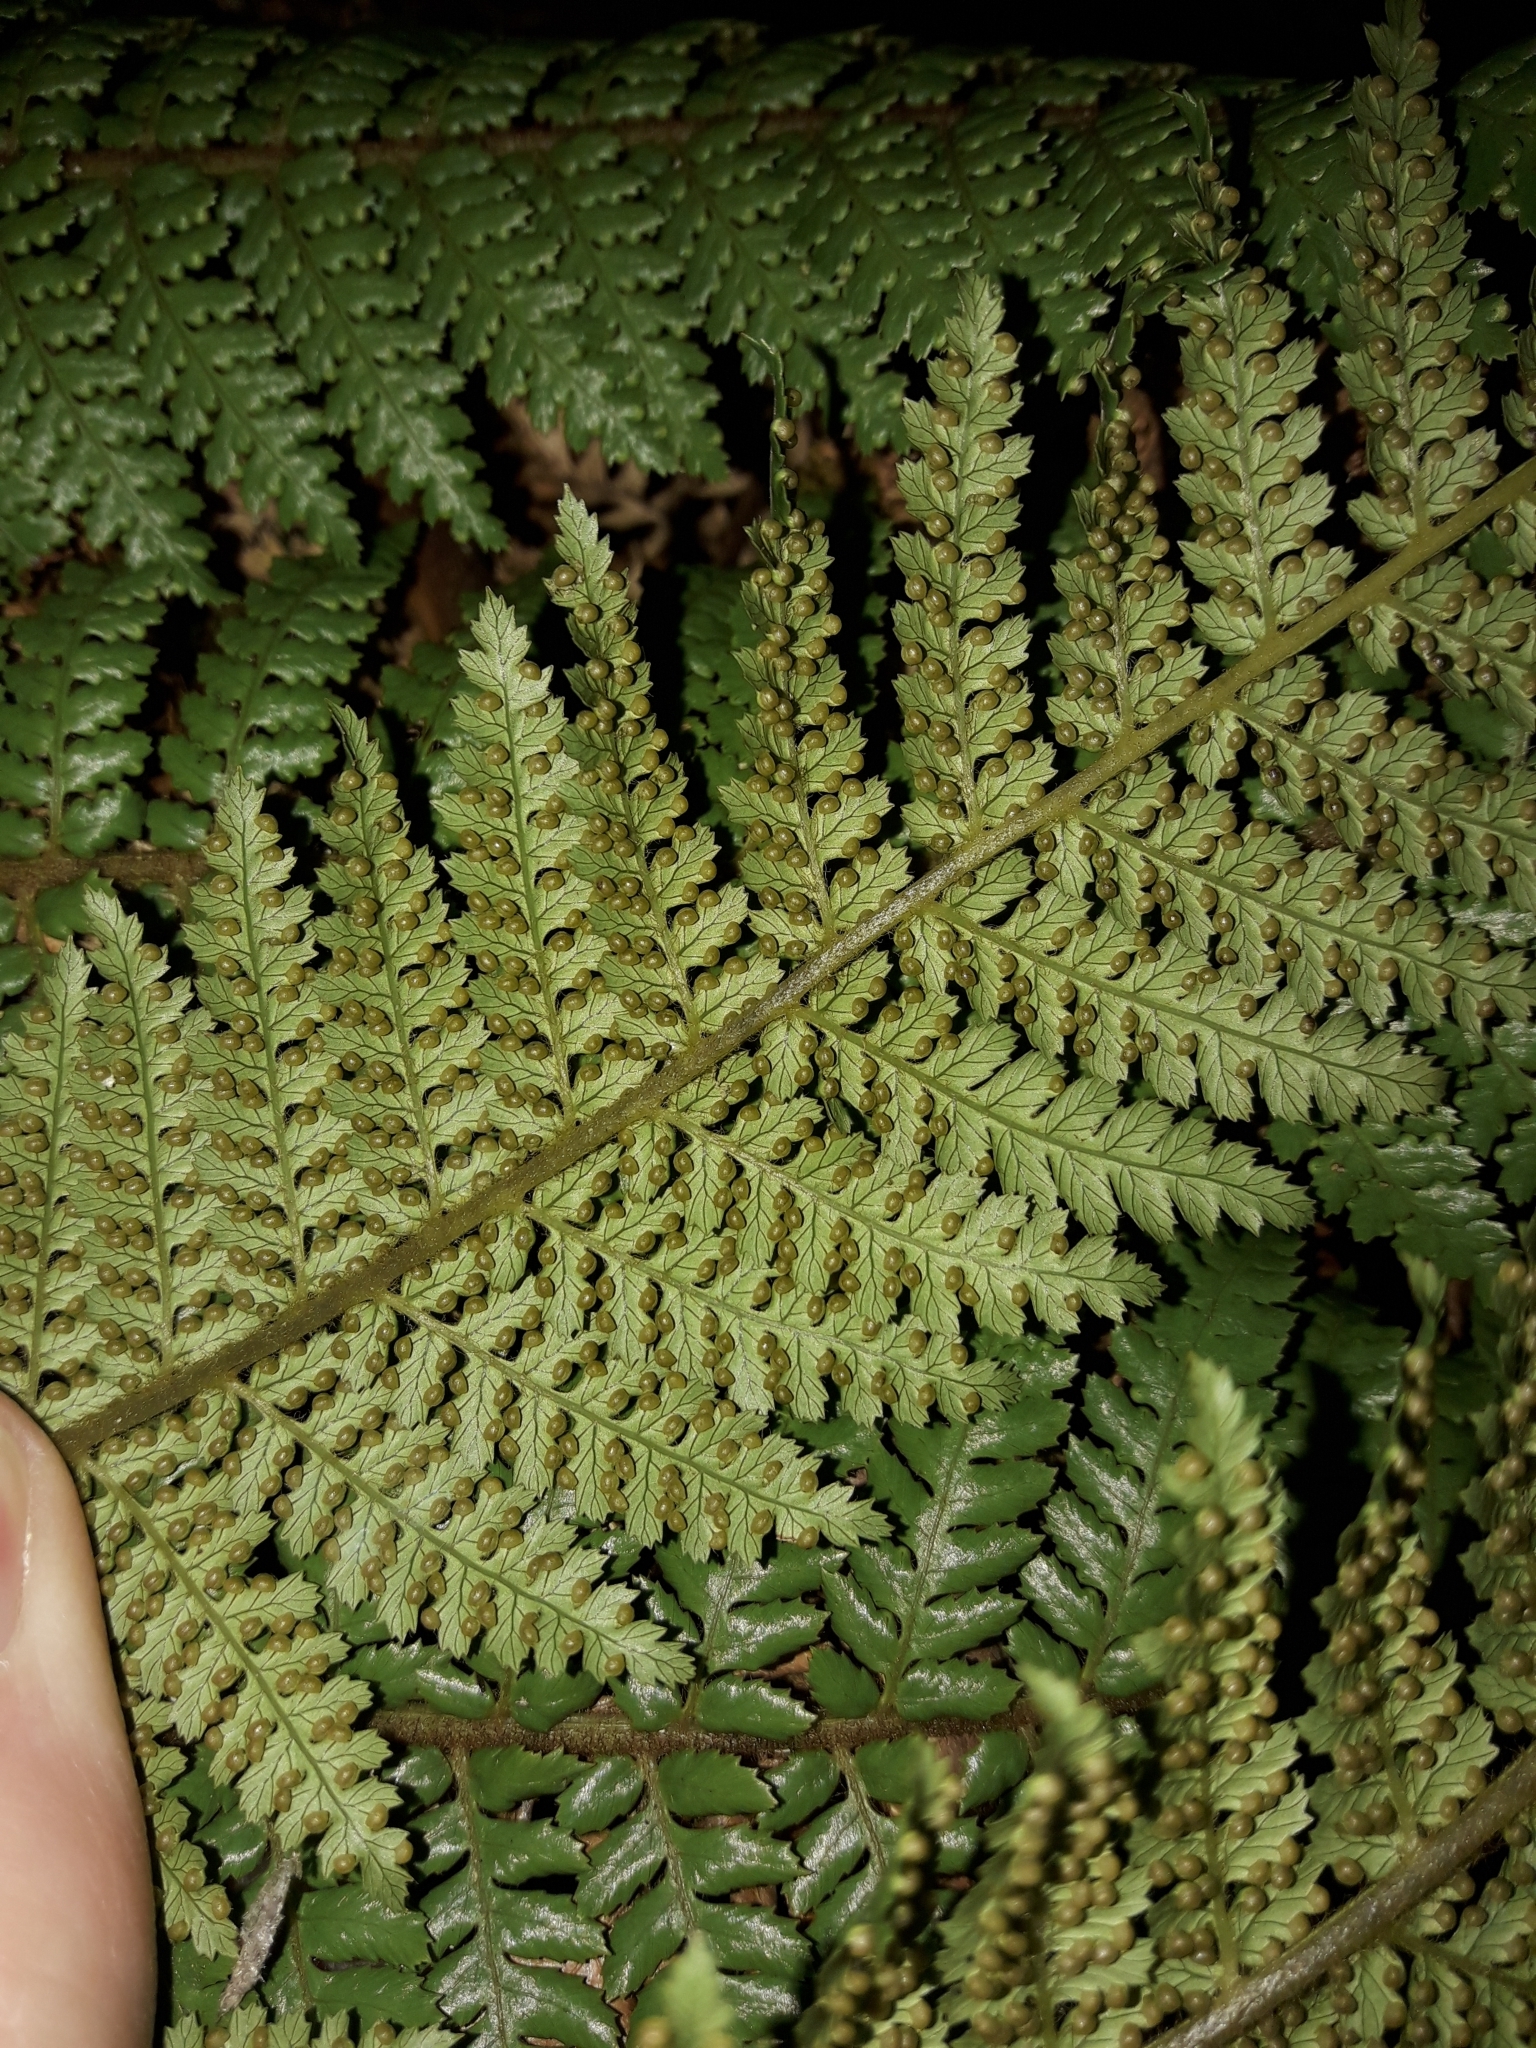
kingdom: Plantae
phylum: Tracheophyta
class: Polypodiopsida
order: Cyatheales
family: Dicksoniaceae
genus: Dicksonia
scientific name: Dicksonia fibrosa
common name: Golden tree fern
